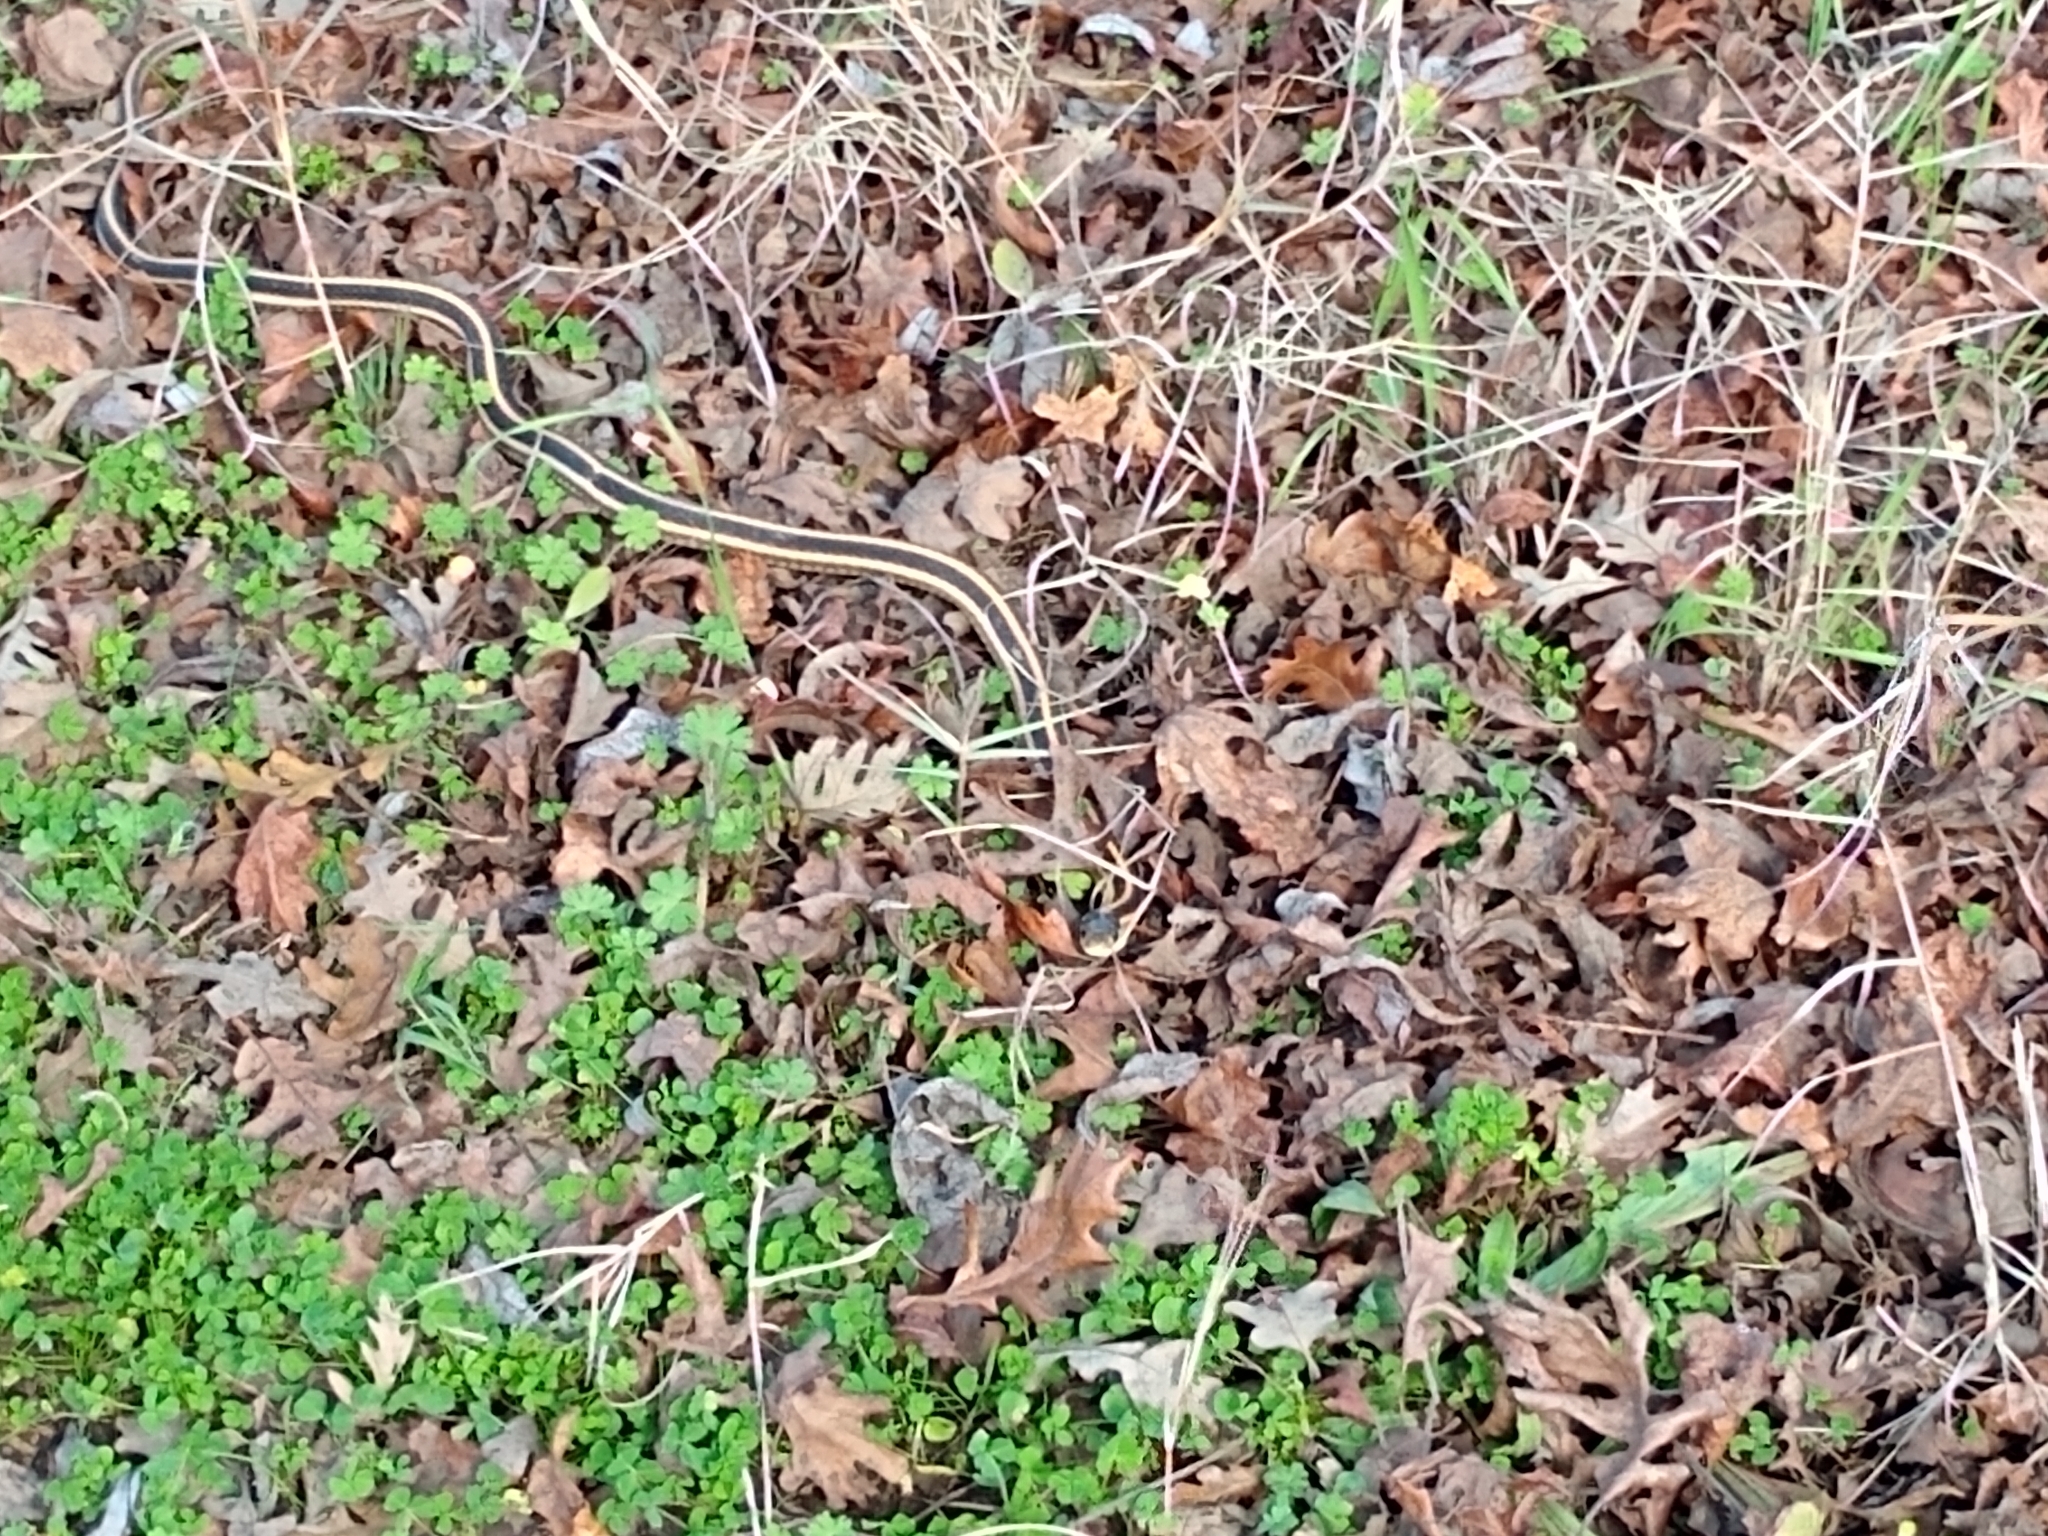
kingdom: Animalia
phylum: Chordata
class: Squamata
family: Colubridae
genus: Thamnophis
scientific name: Thamnophis sirtalis
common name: Common garter snake
